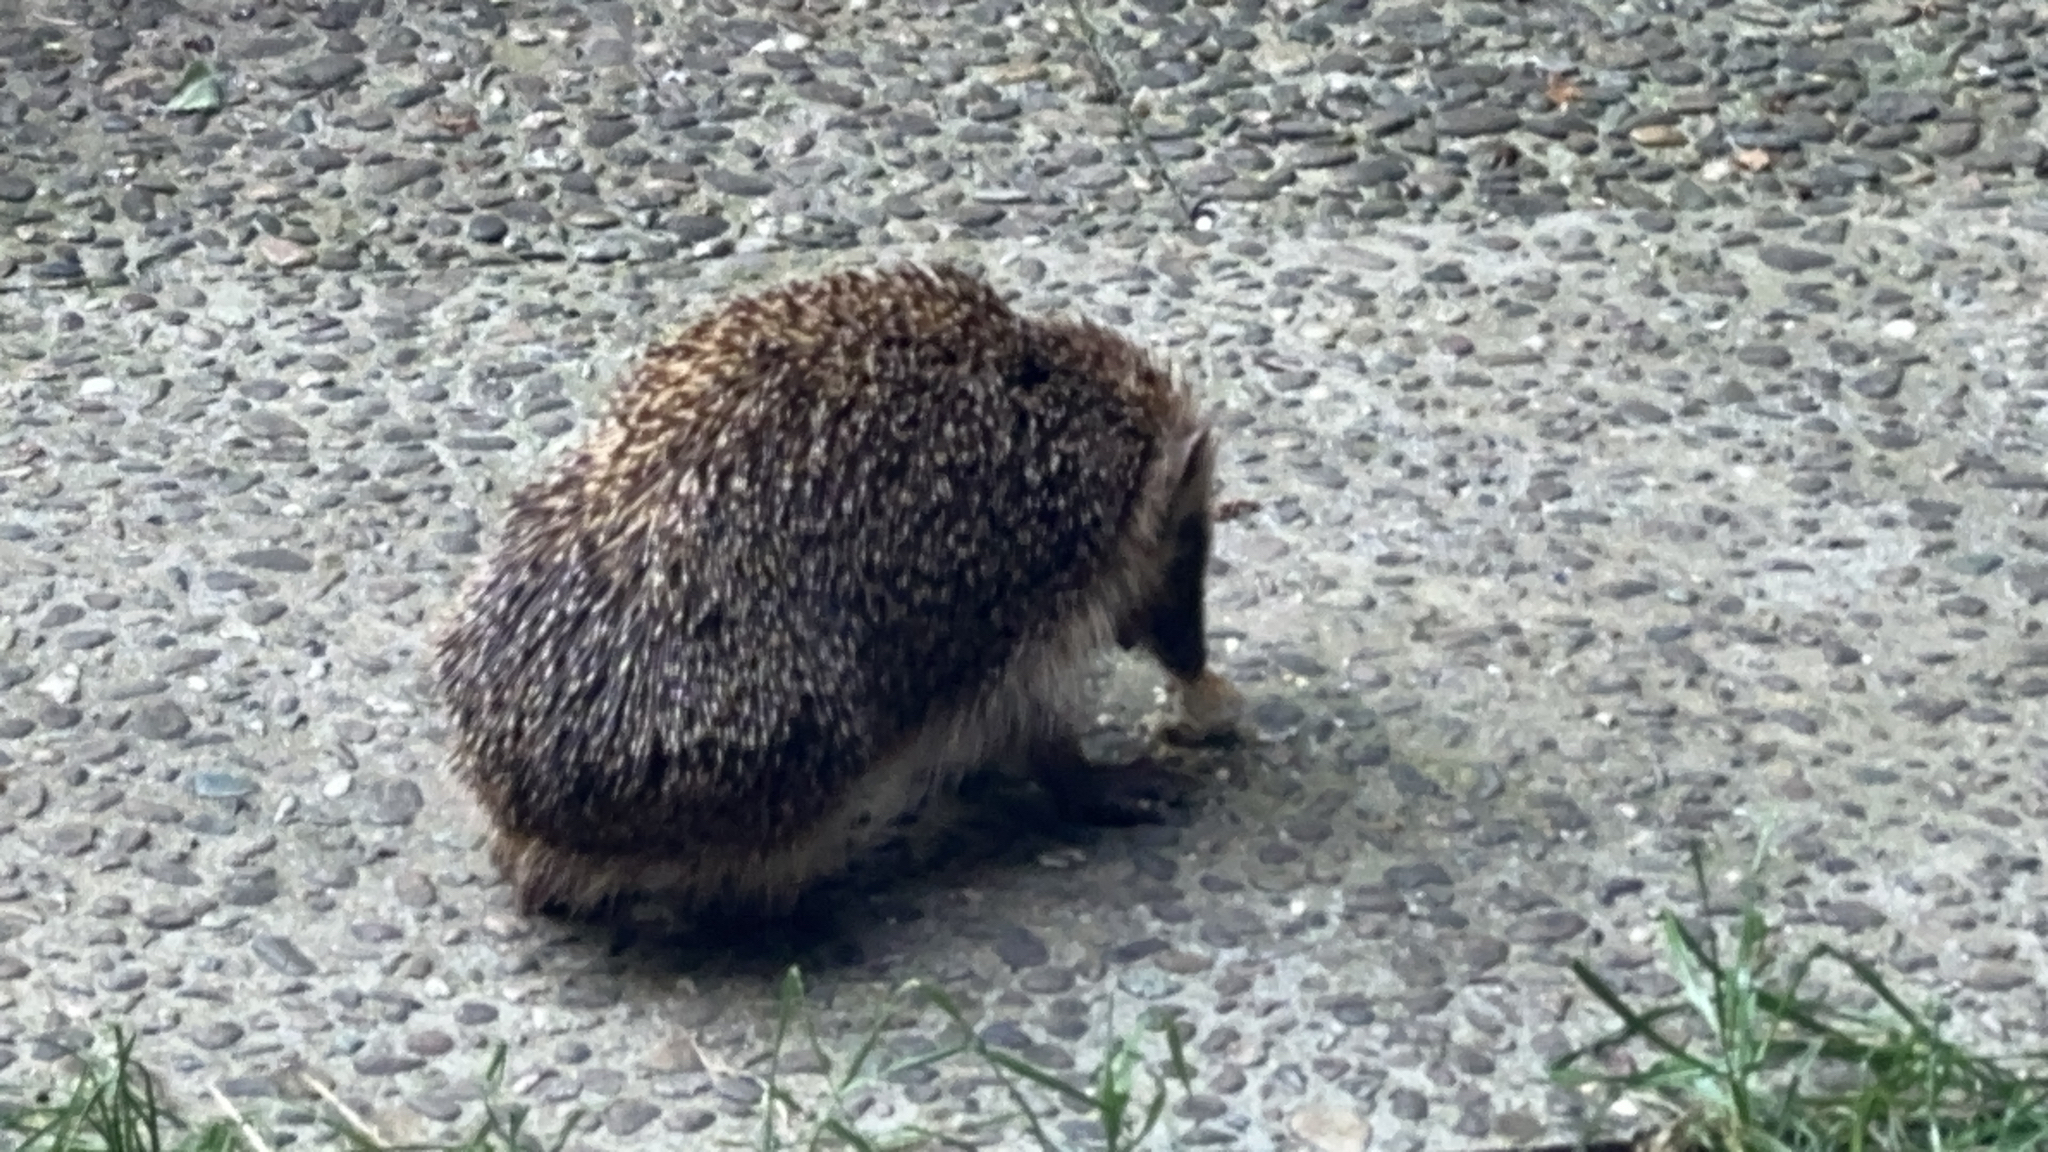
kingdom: Animalia
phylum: Chordata
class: Mammalia
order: Erinaceomorpha
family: Erinaceidae
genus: Erinaceus
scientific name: Erinaceus europaeus
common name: West european hedgehog
